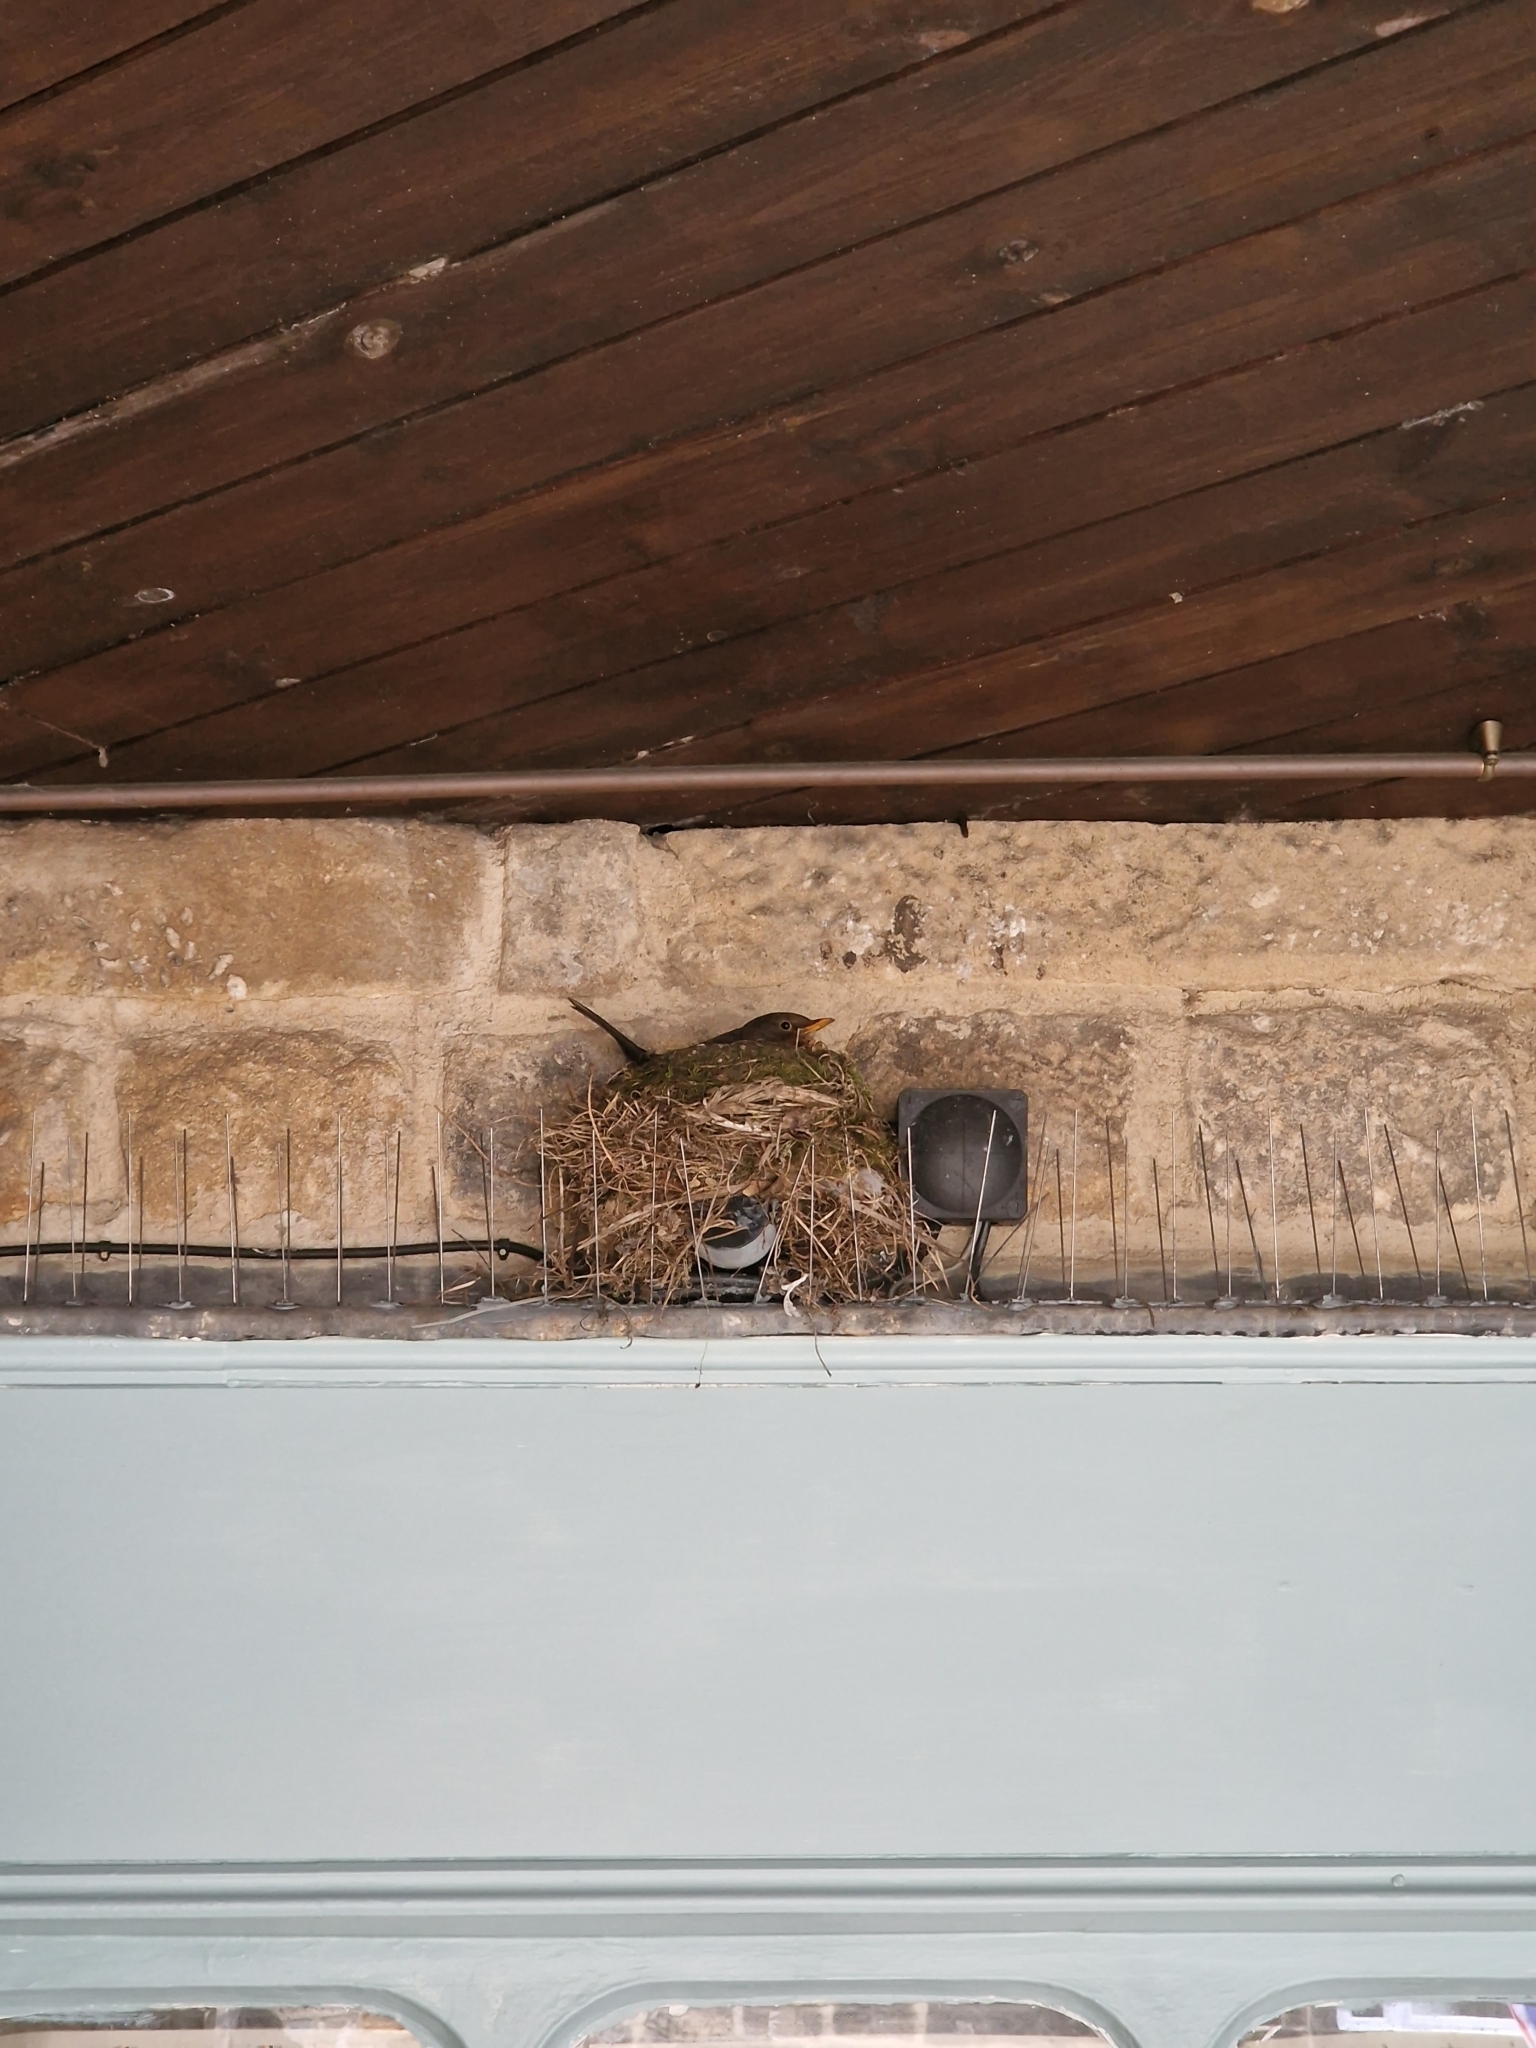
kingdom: Animalia
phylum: Chordata
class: Aves
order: Passeriformes
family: Turdidae
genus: Turdus
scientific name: Turdus merula
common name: Common blackbird
